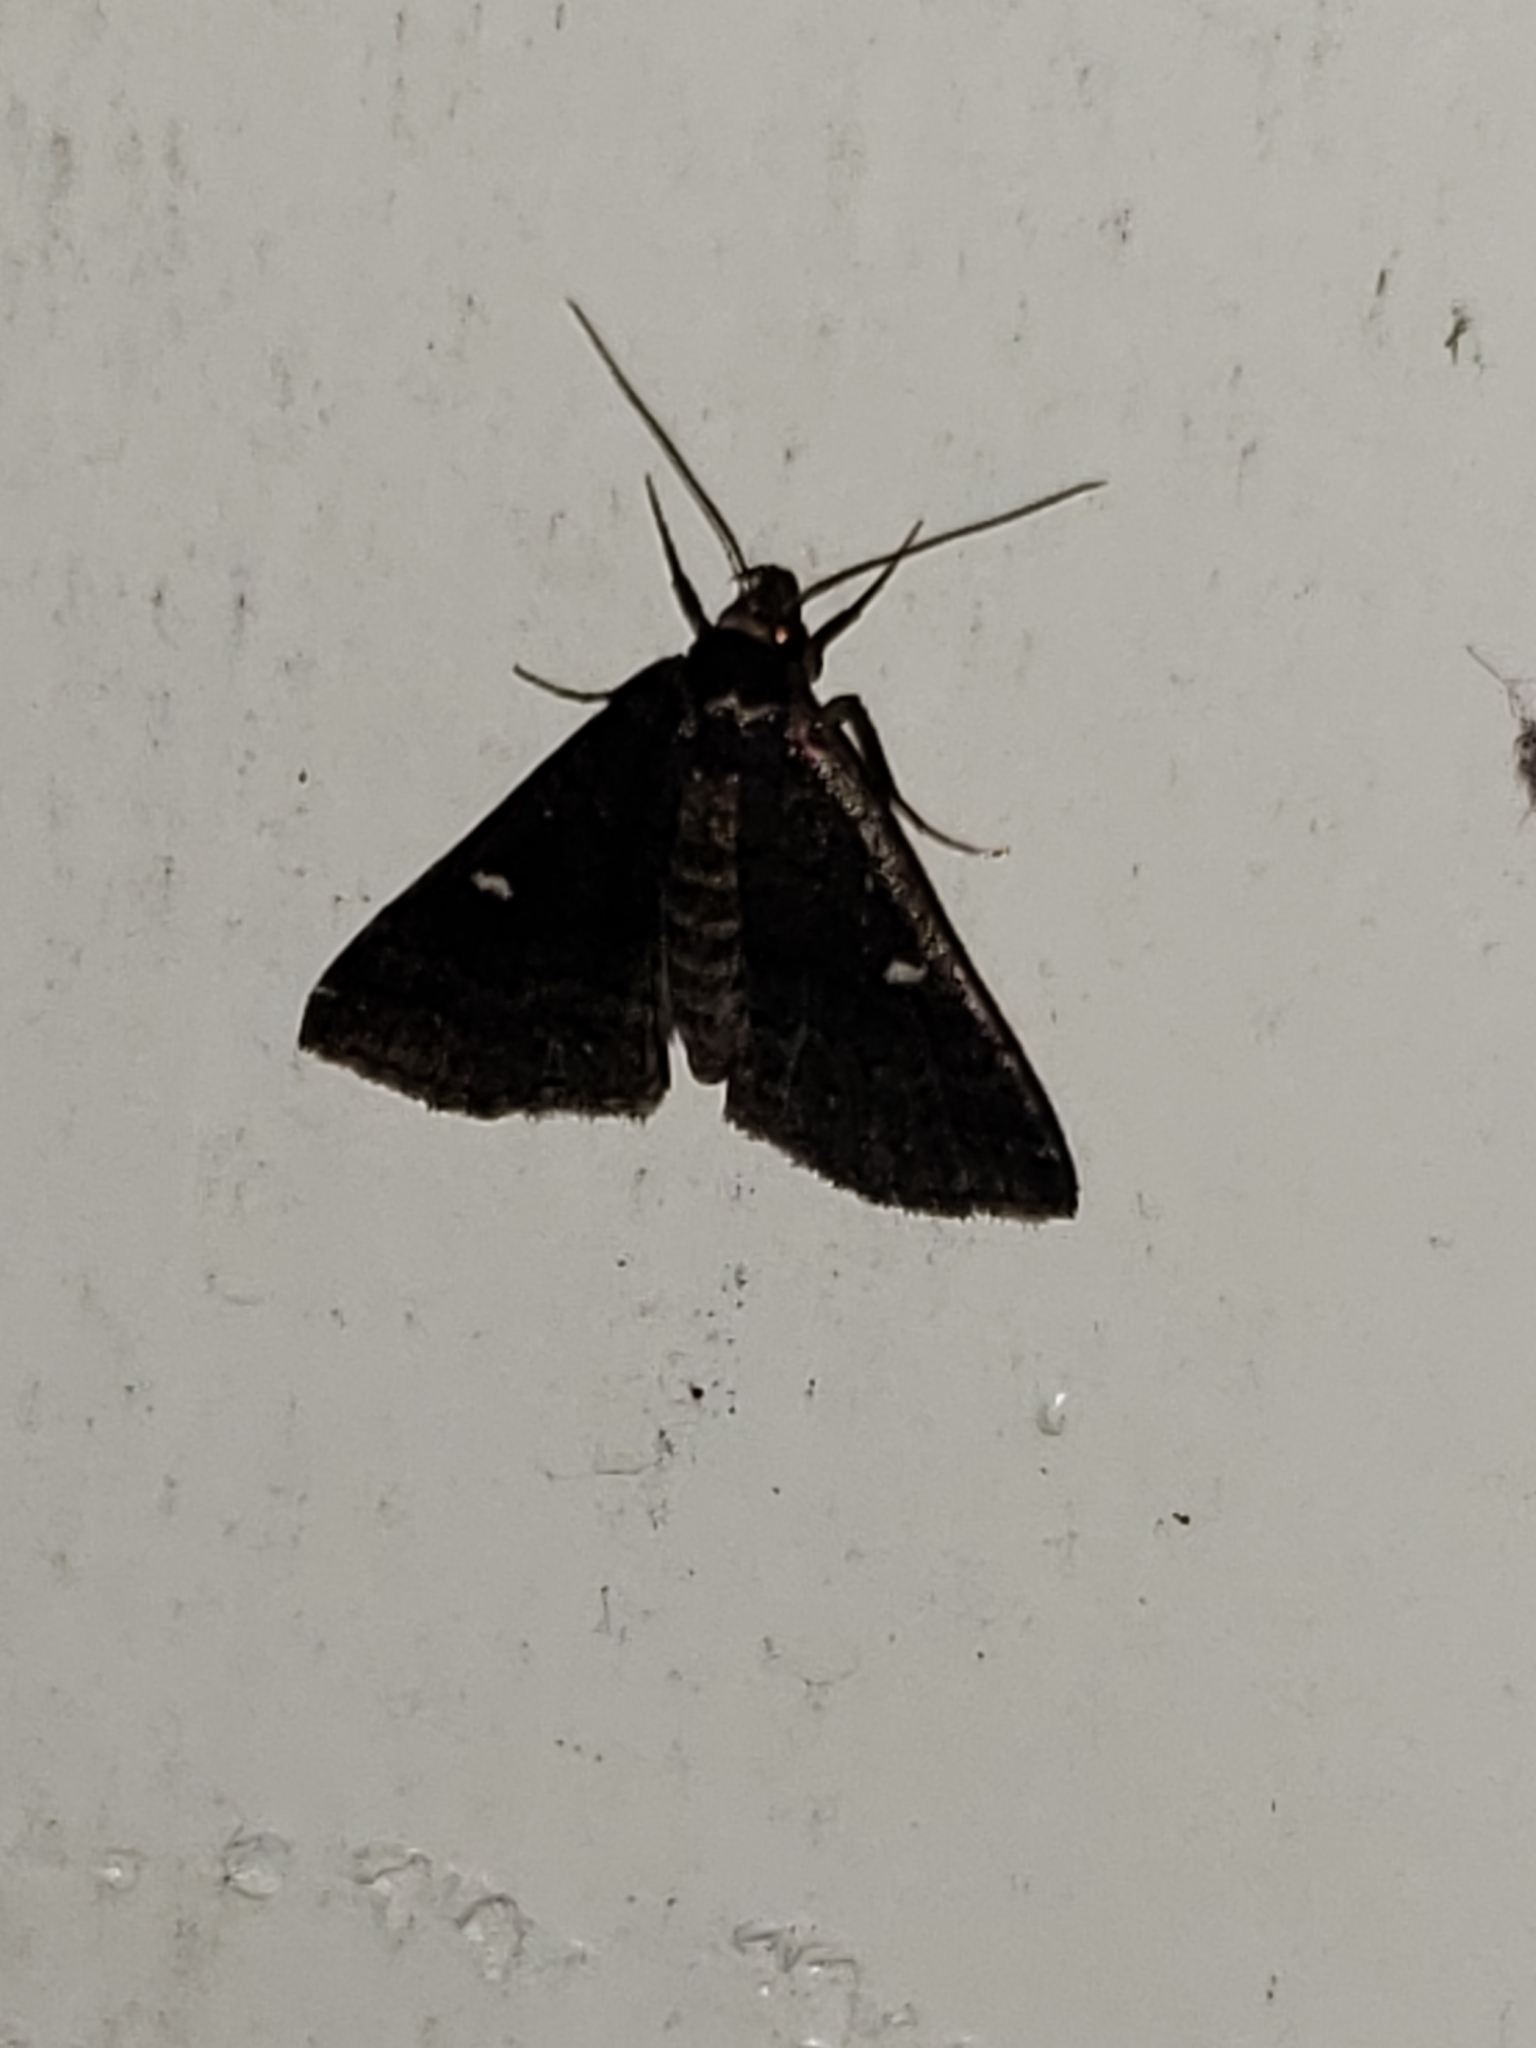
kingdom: Animalia
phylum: Arthropoda
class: Insecta
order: Lepidoptera
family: Erebidae
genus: Tetanolita
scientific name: Tetanolita mynesalis
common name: Smoky tetanolita moth
